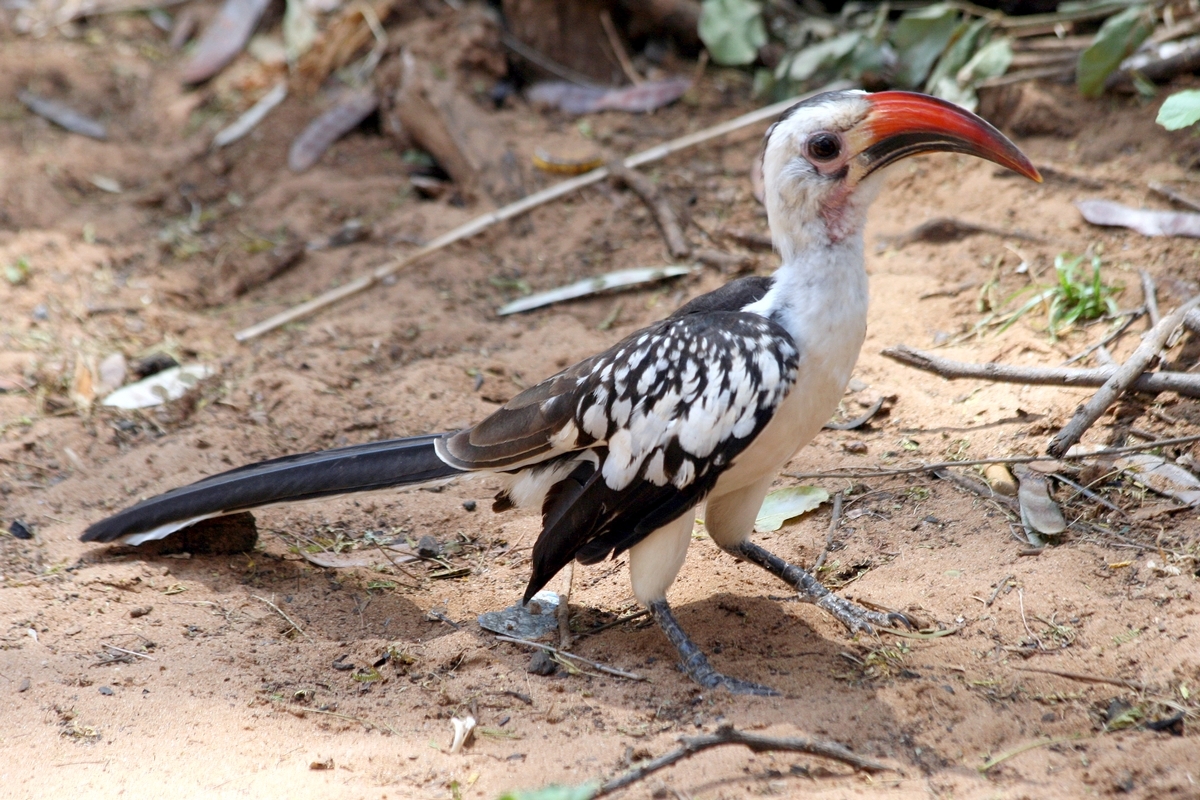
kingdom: Animalia
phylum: Chordata
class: Aves
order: Bucerotiformes
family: Bucerotidae
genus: Tockus
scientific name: Tockus erythrorhynchus
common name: Northern red-billed hornbill
